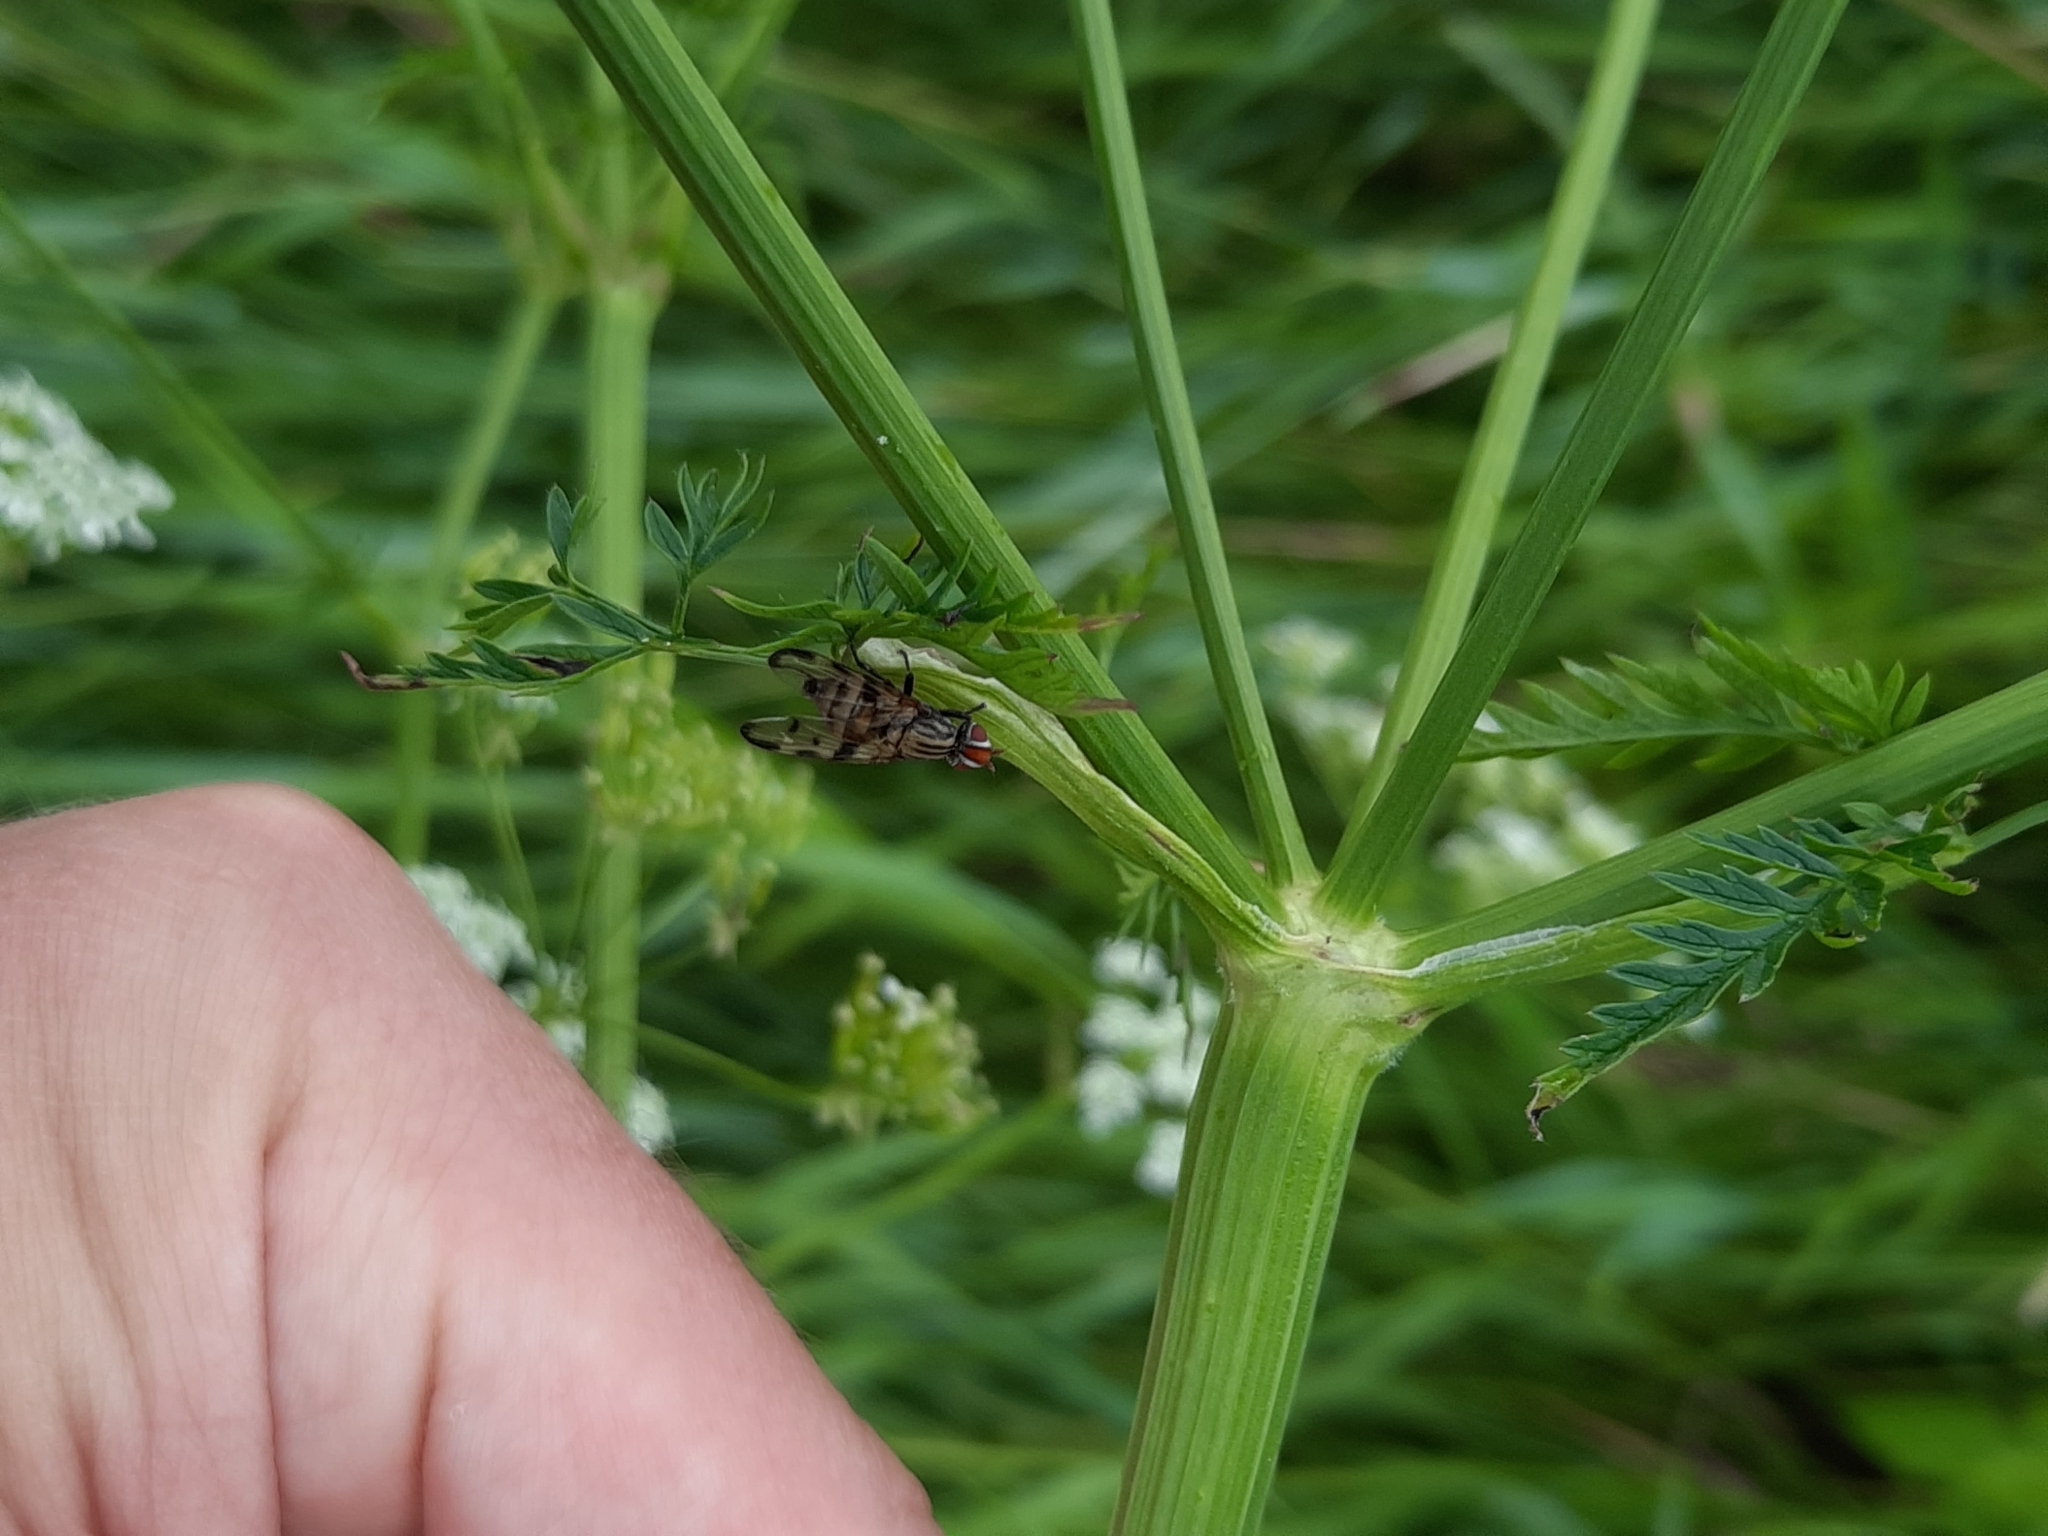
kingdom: Animalia
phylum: Arthropoda
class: Insecta
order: Diptera
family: Ulidiidae
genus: Otites
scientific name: Otites formosa
